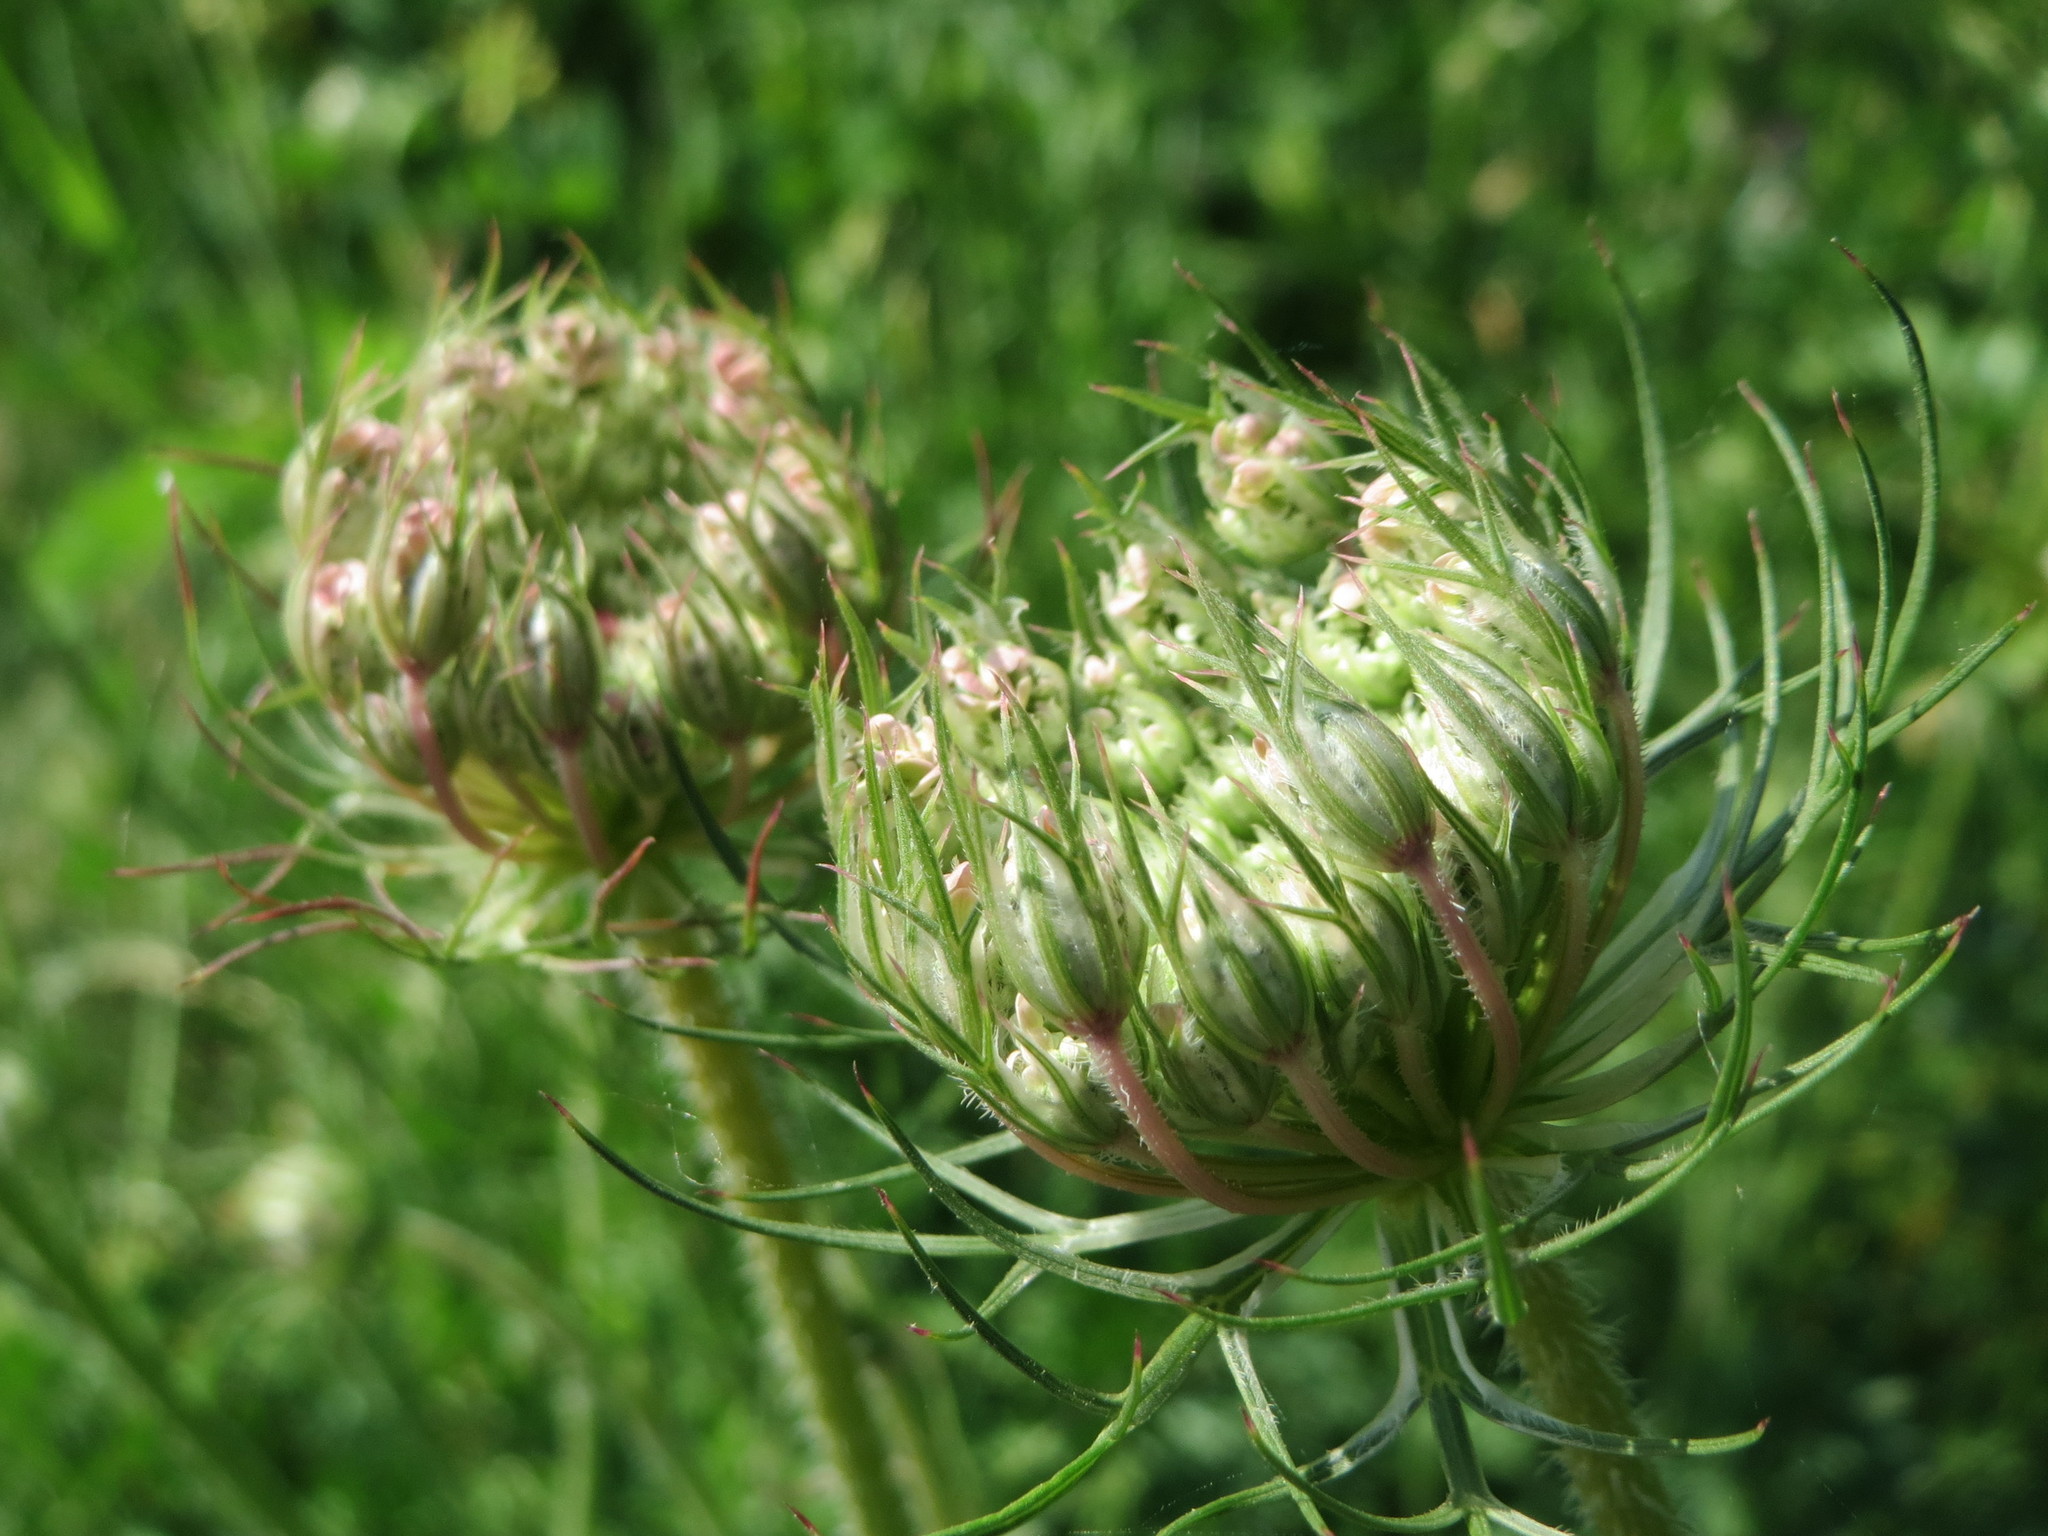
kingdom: Plantae
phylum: Tracheophyta
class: Magnoliopsida
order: Apiales
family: Apiaceae
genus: Daucus
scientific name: Daucus carota
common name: Wild carrot
